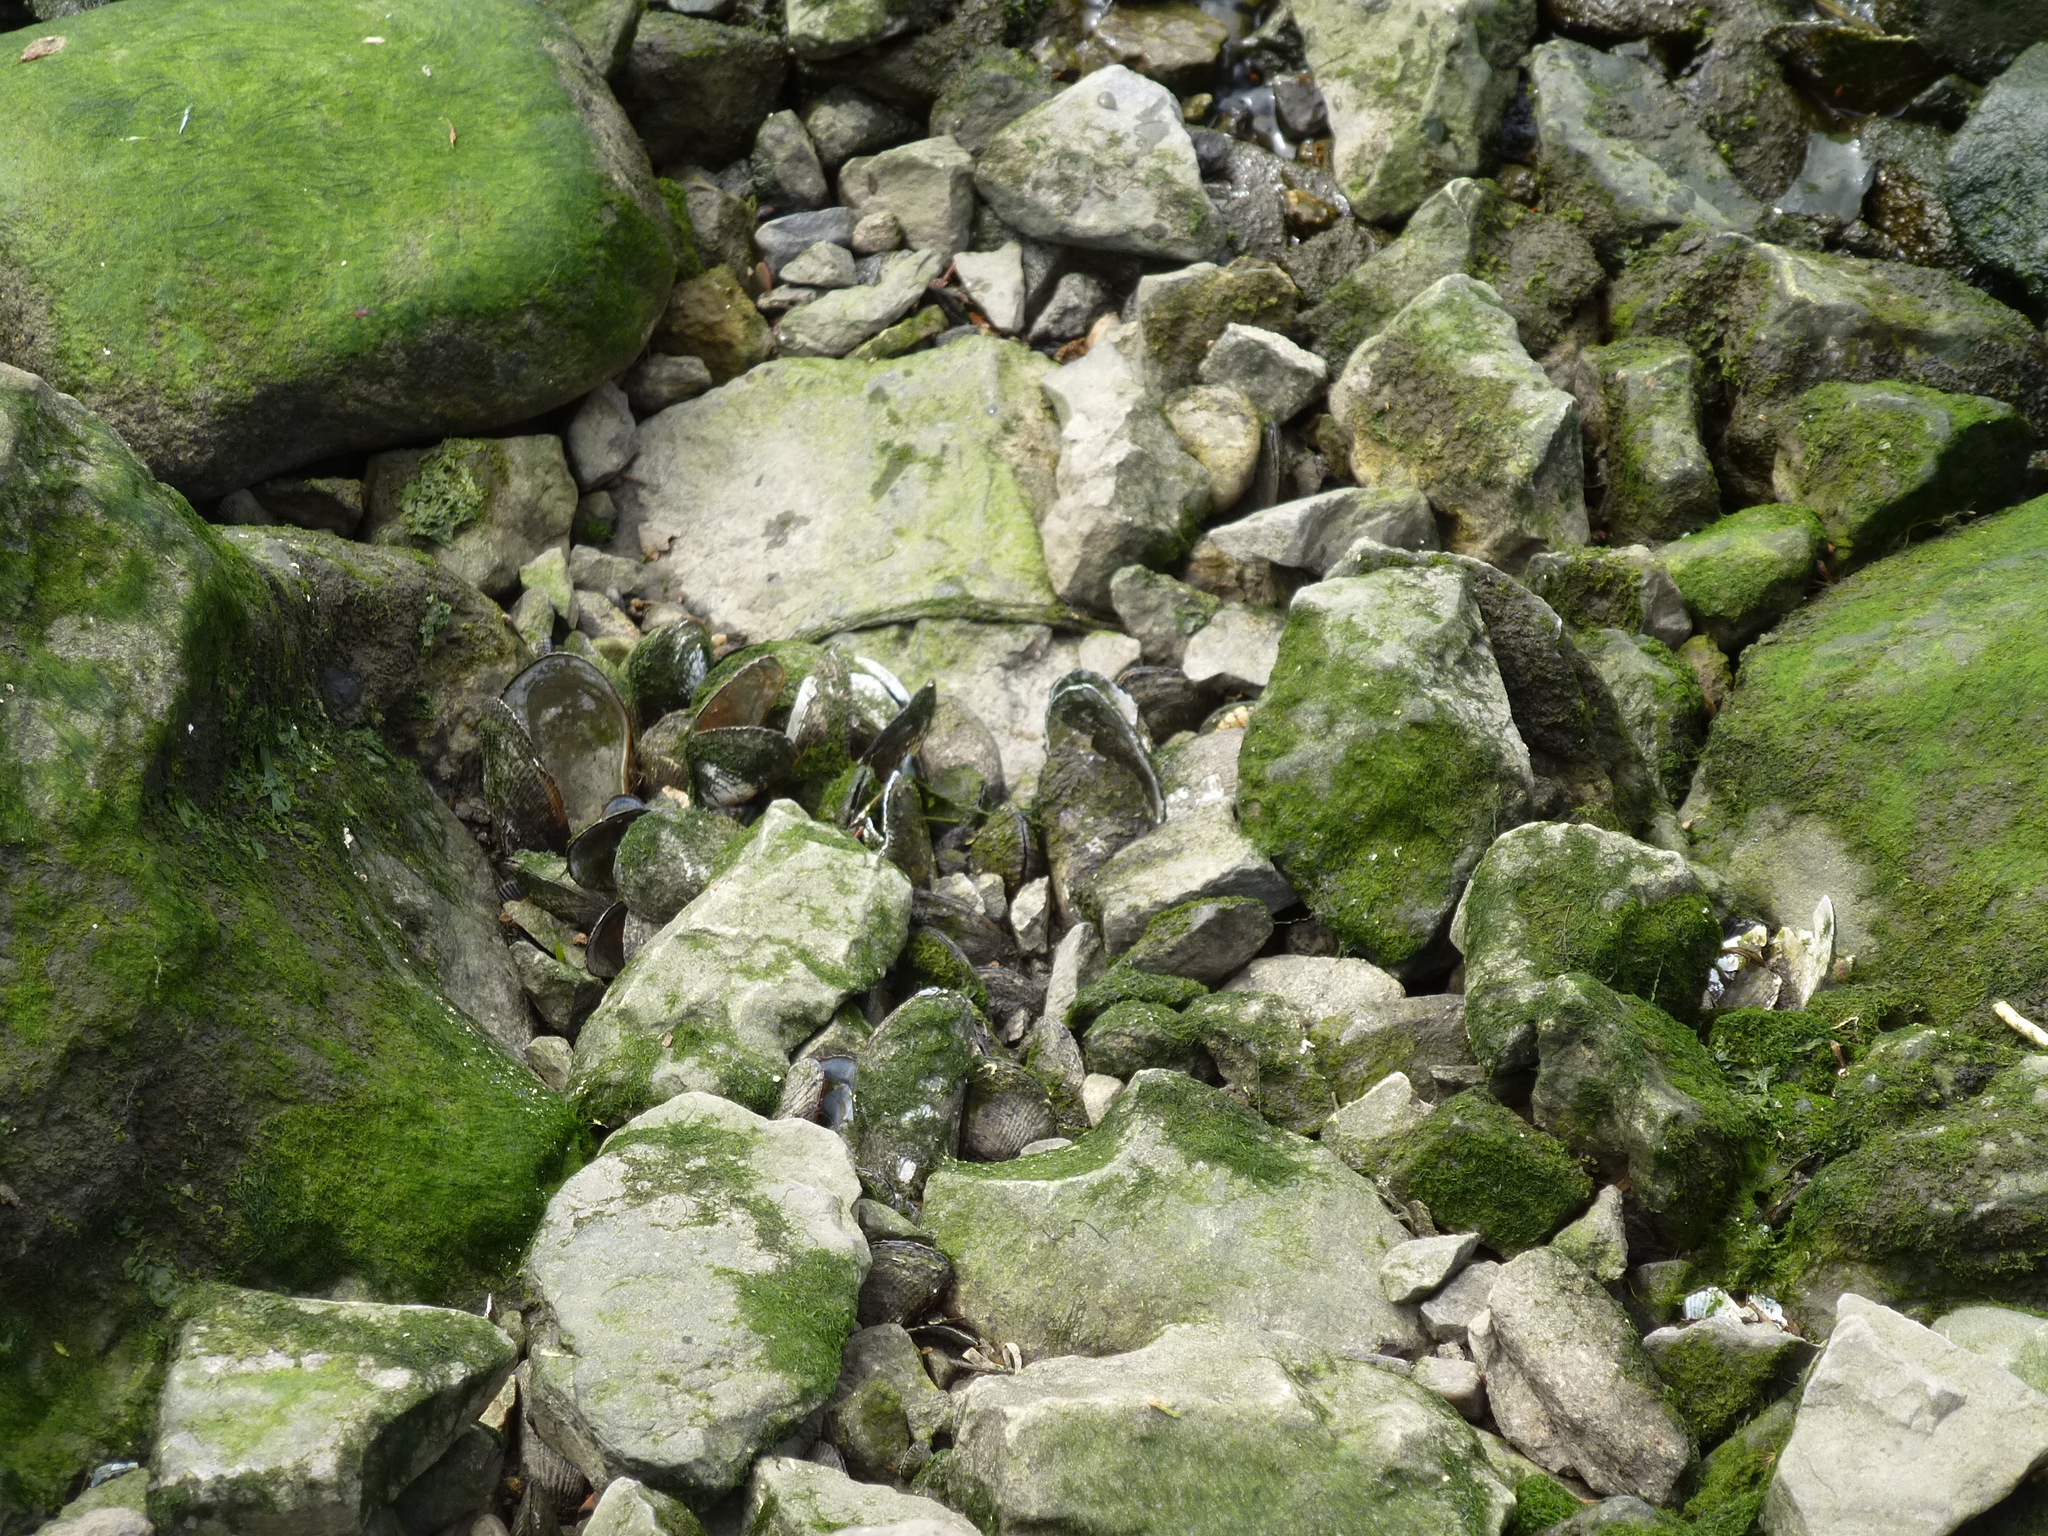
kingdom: Animalia
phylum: Mollusca
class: Bivalvia
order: Mytilida
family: Mytilidae
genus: Geukensia
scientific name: Geukensia demissa
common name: Ribbed mussel
